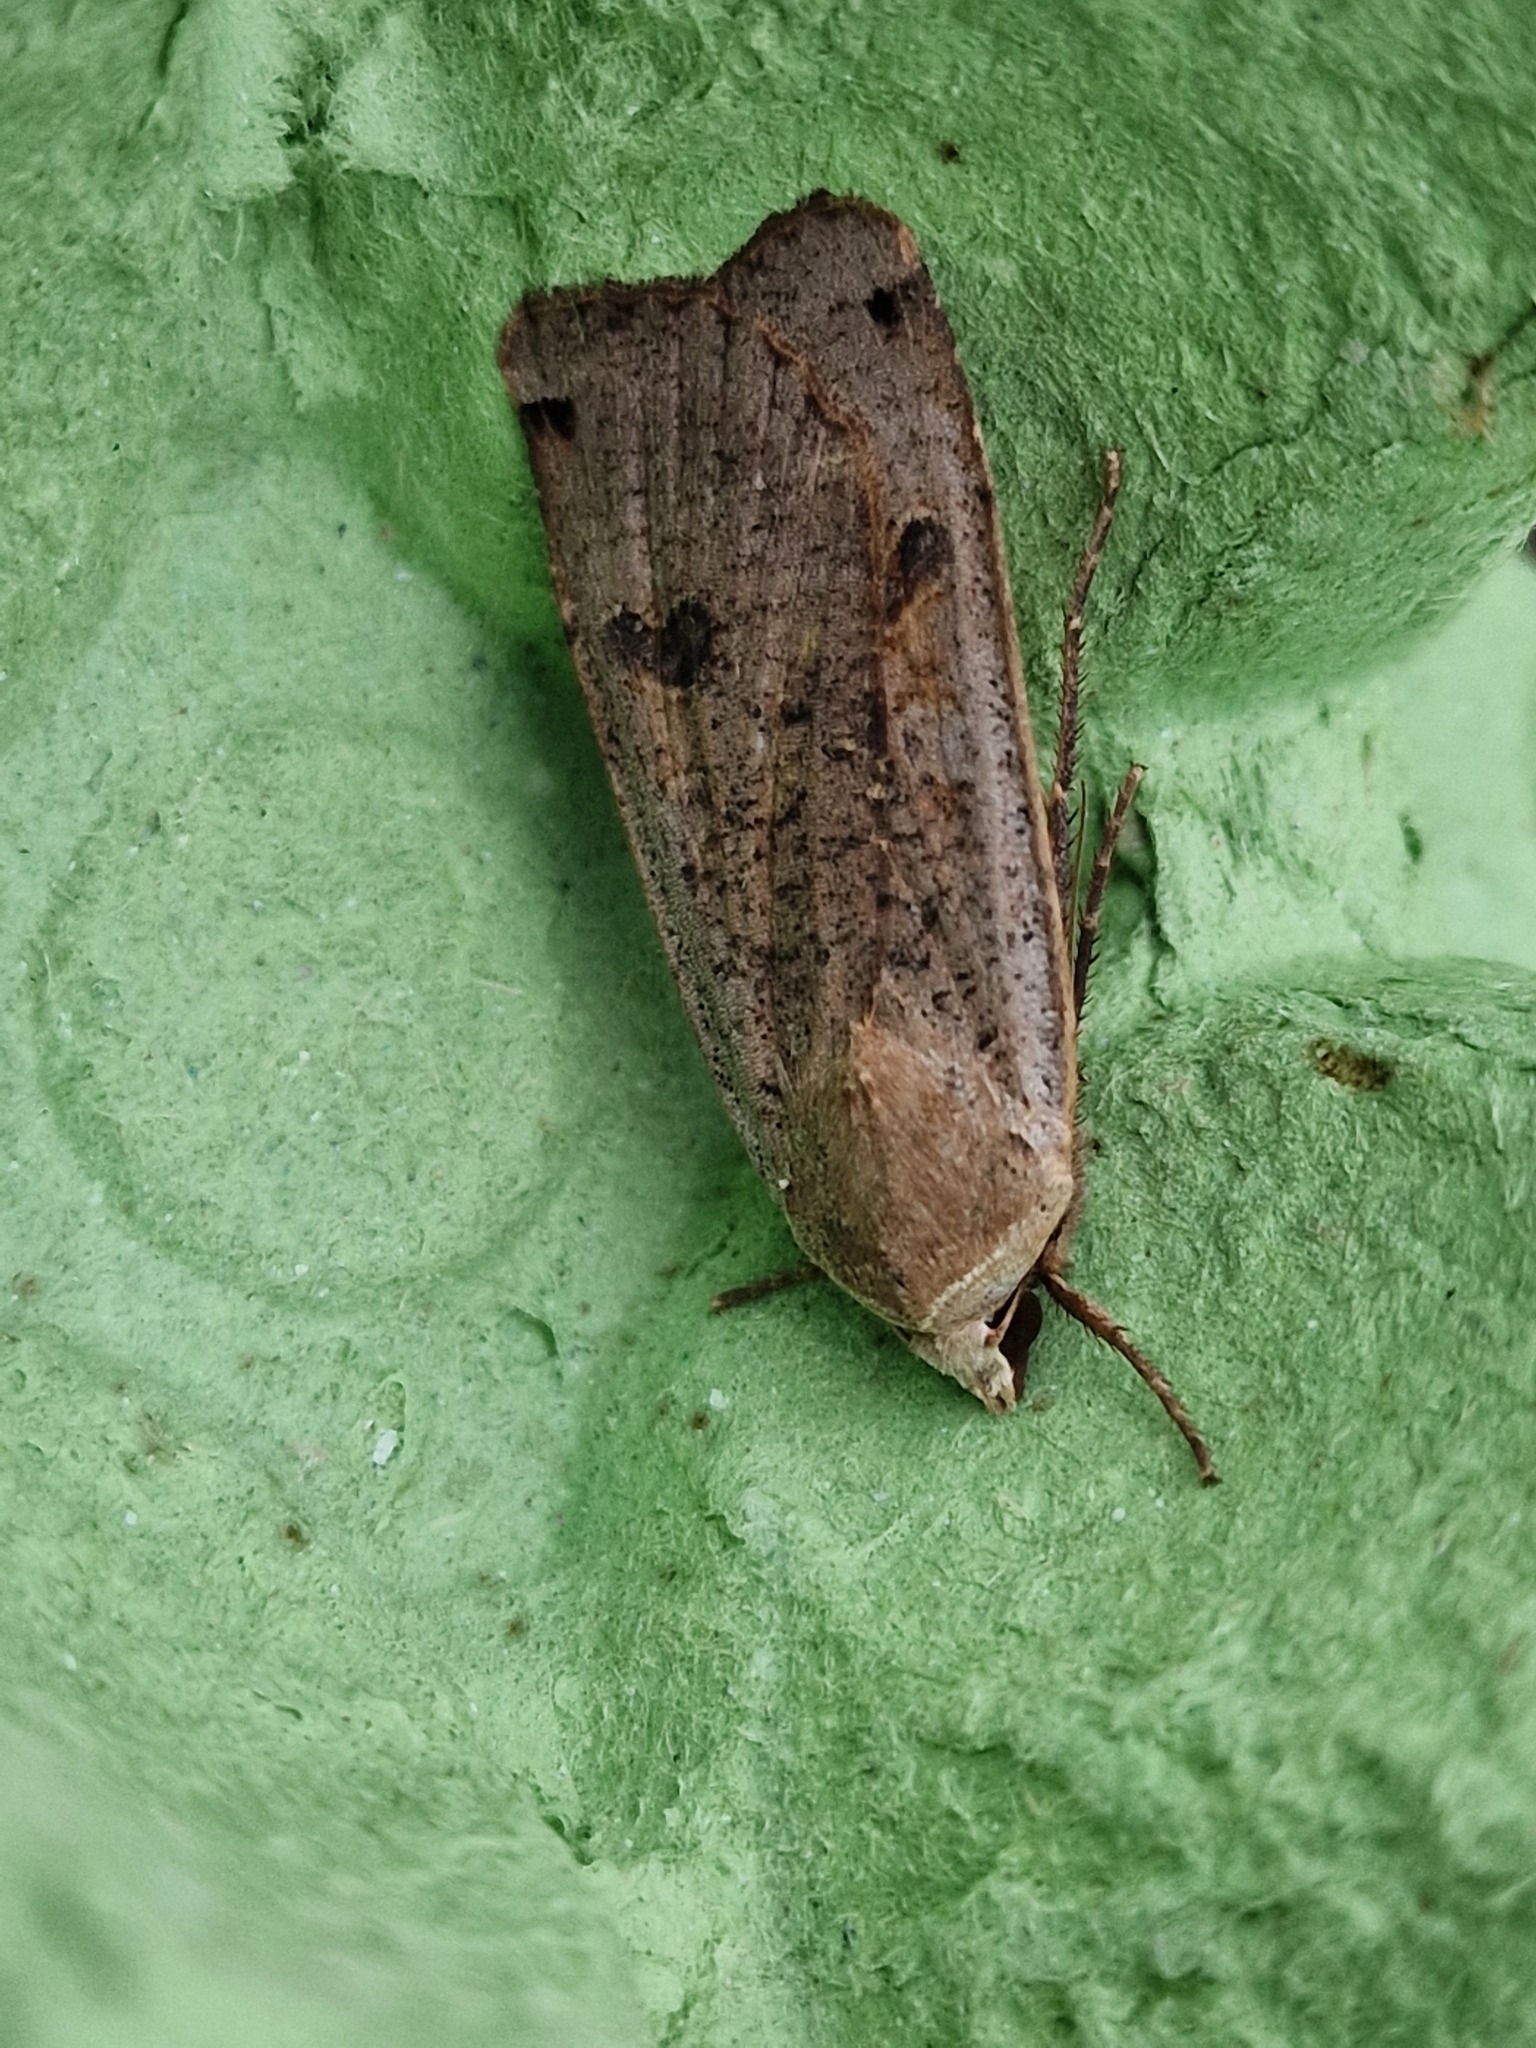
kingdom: Animalia
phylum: Arthropoda
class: Insecta
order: Lepidoptera
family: Noctuidae
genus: Noctua
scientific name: Noctua pronuba
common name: Large yellow underwing
